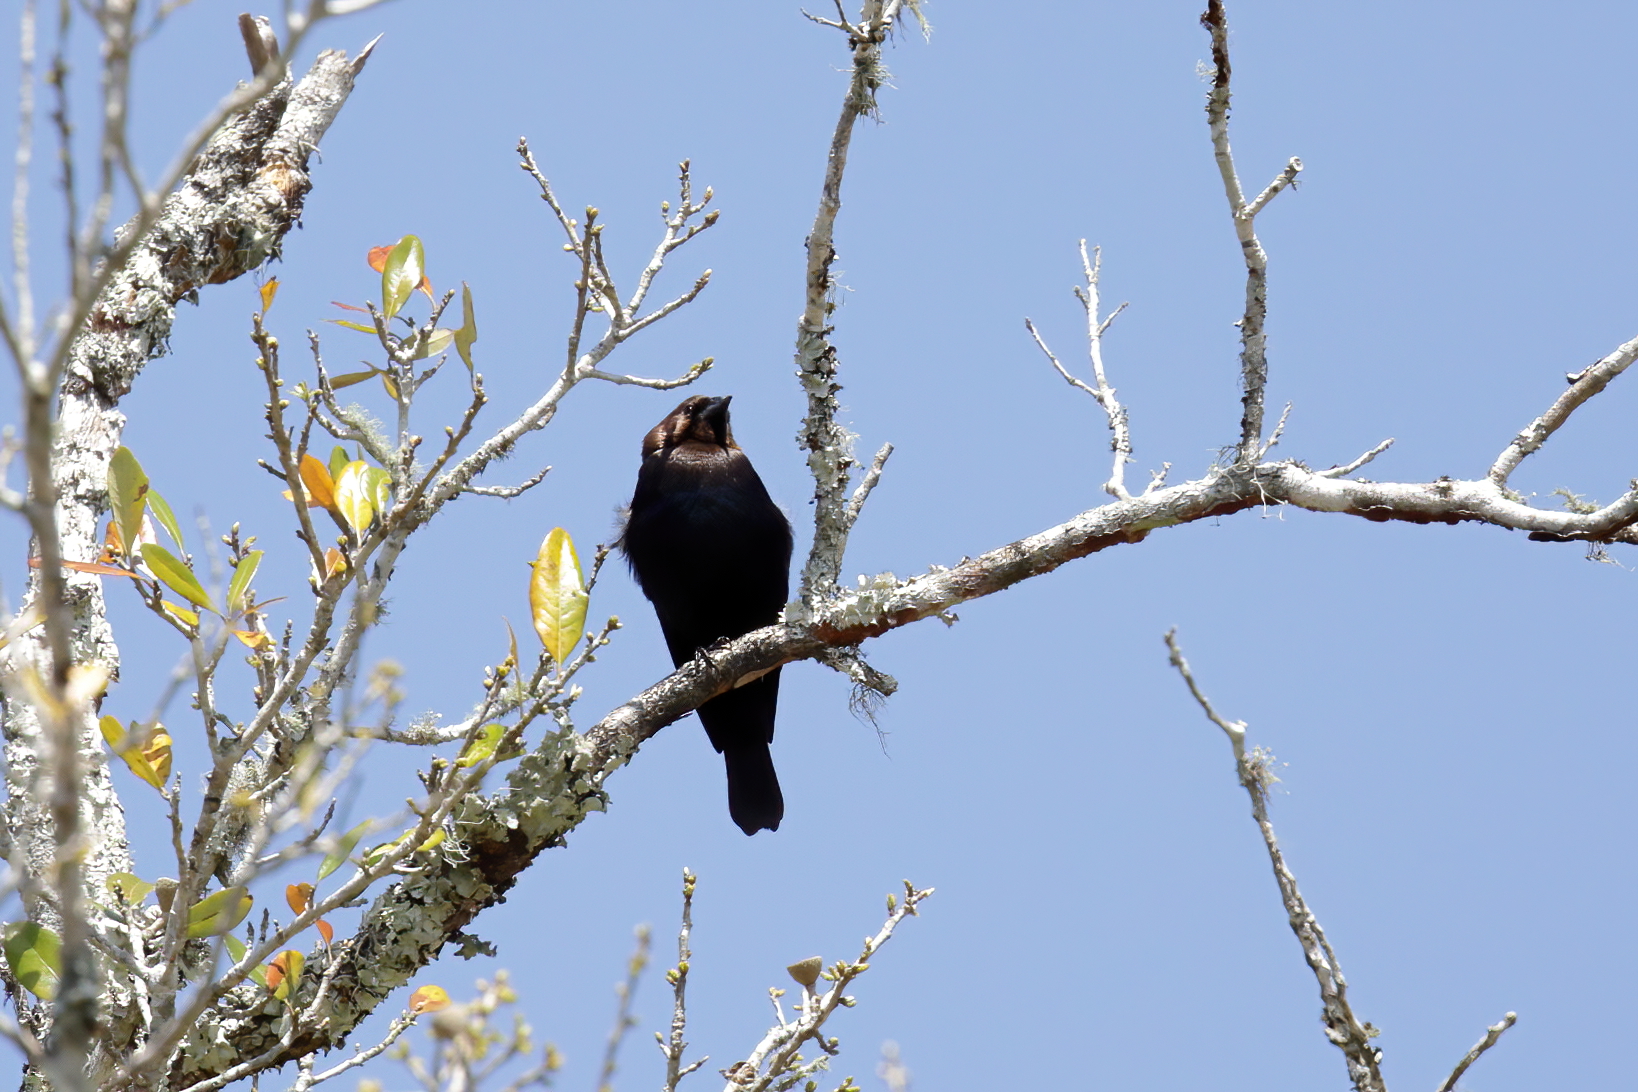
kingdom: Animalia
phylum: Chordata
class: Aves
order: Passeriformes
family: Icteridae
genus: Molothrus
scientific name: Molothrus ater
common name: Brown-headed cowbird
